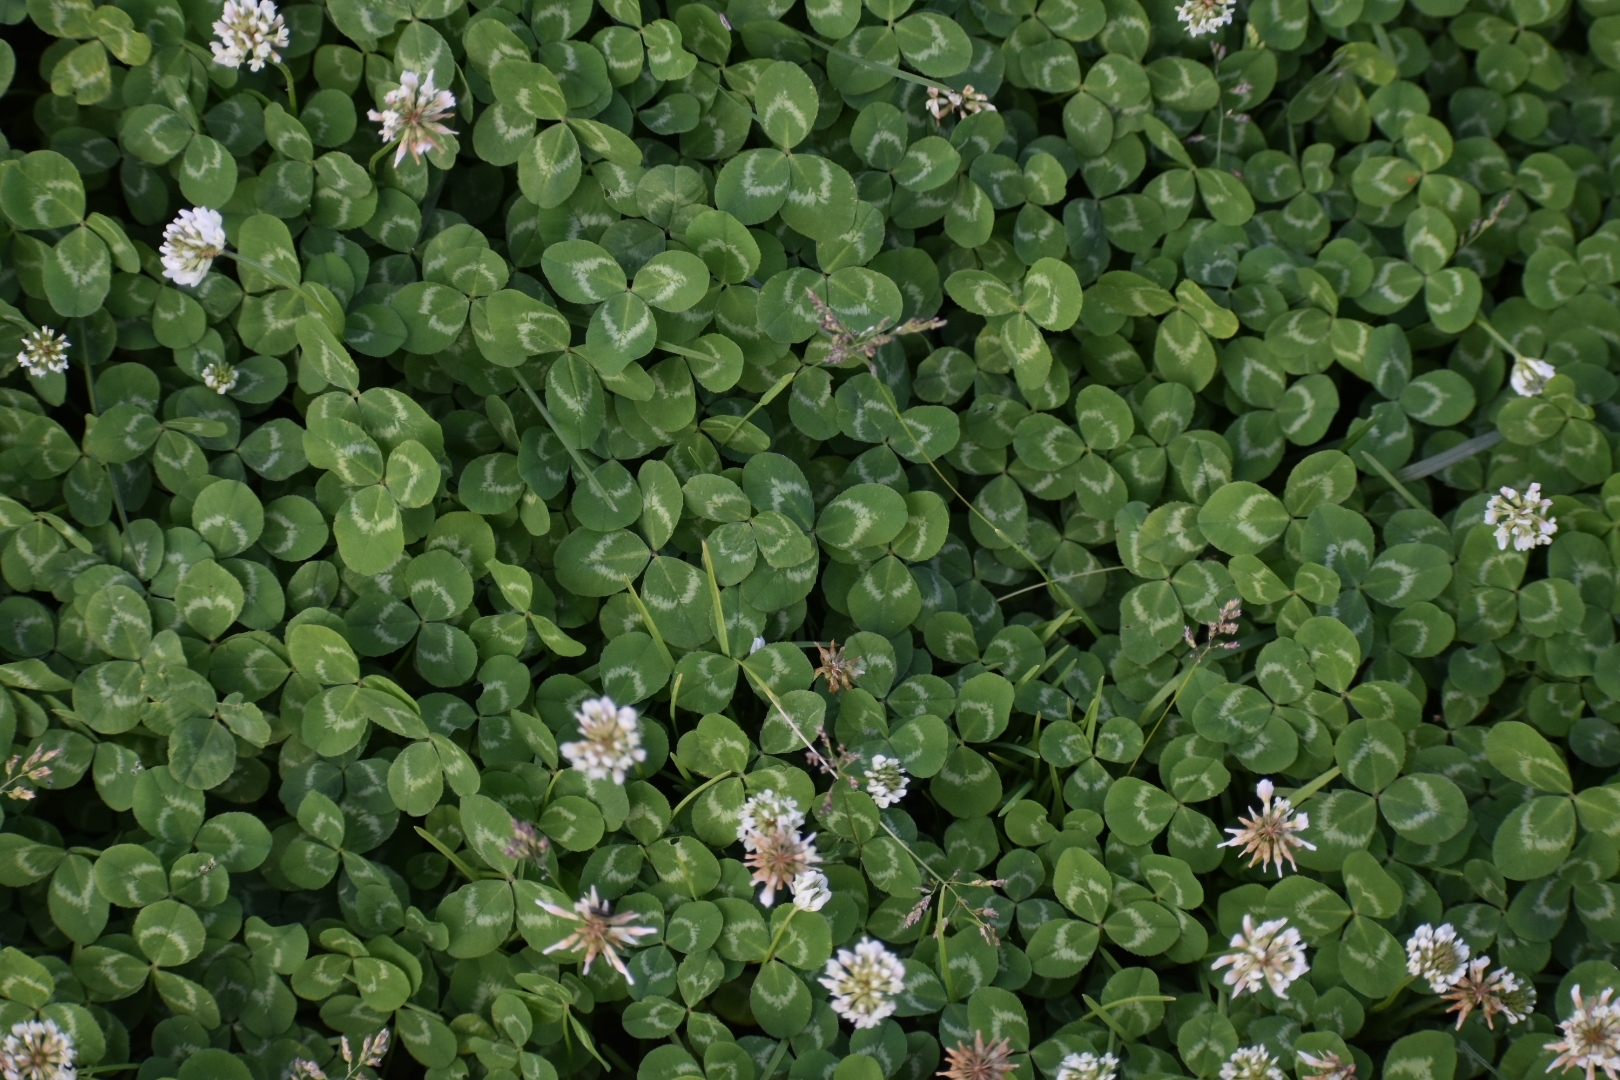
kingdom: Plantae
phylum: Tracheophyta
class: Magnoliopsida
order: Fabales
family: Fabaceae
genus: Trifolium
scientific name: Trifolium repens
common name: White clover
